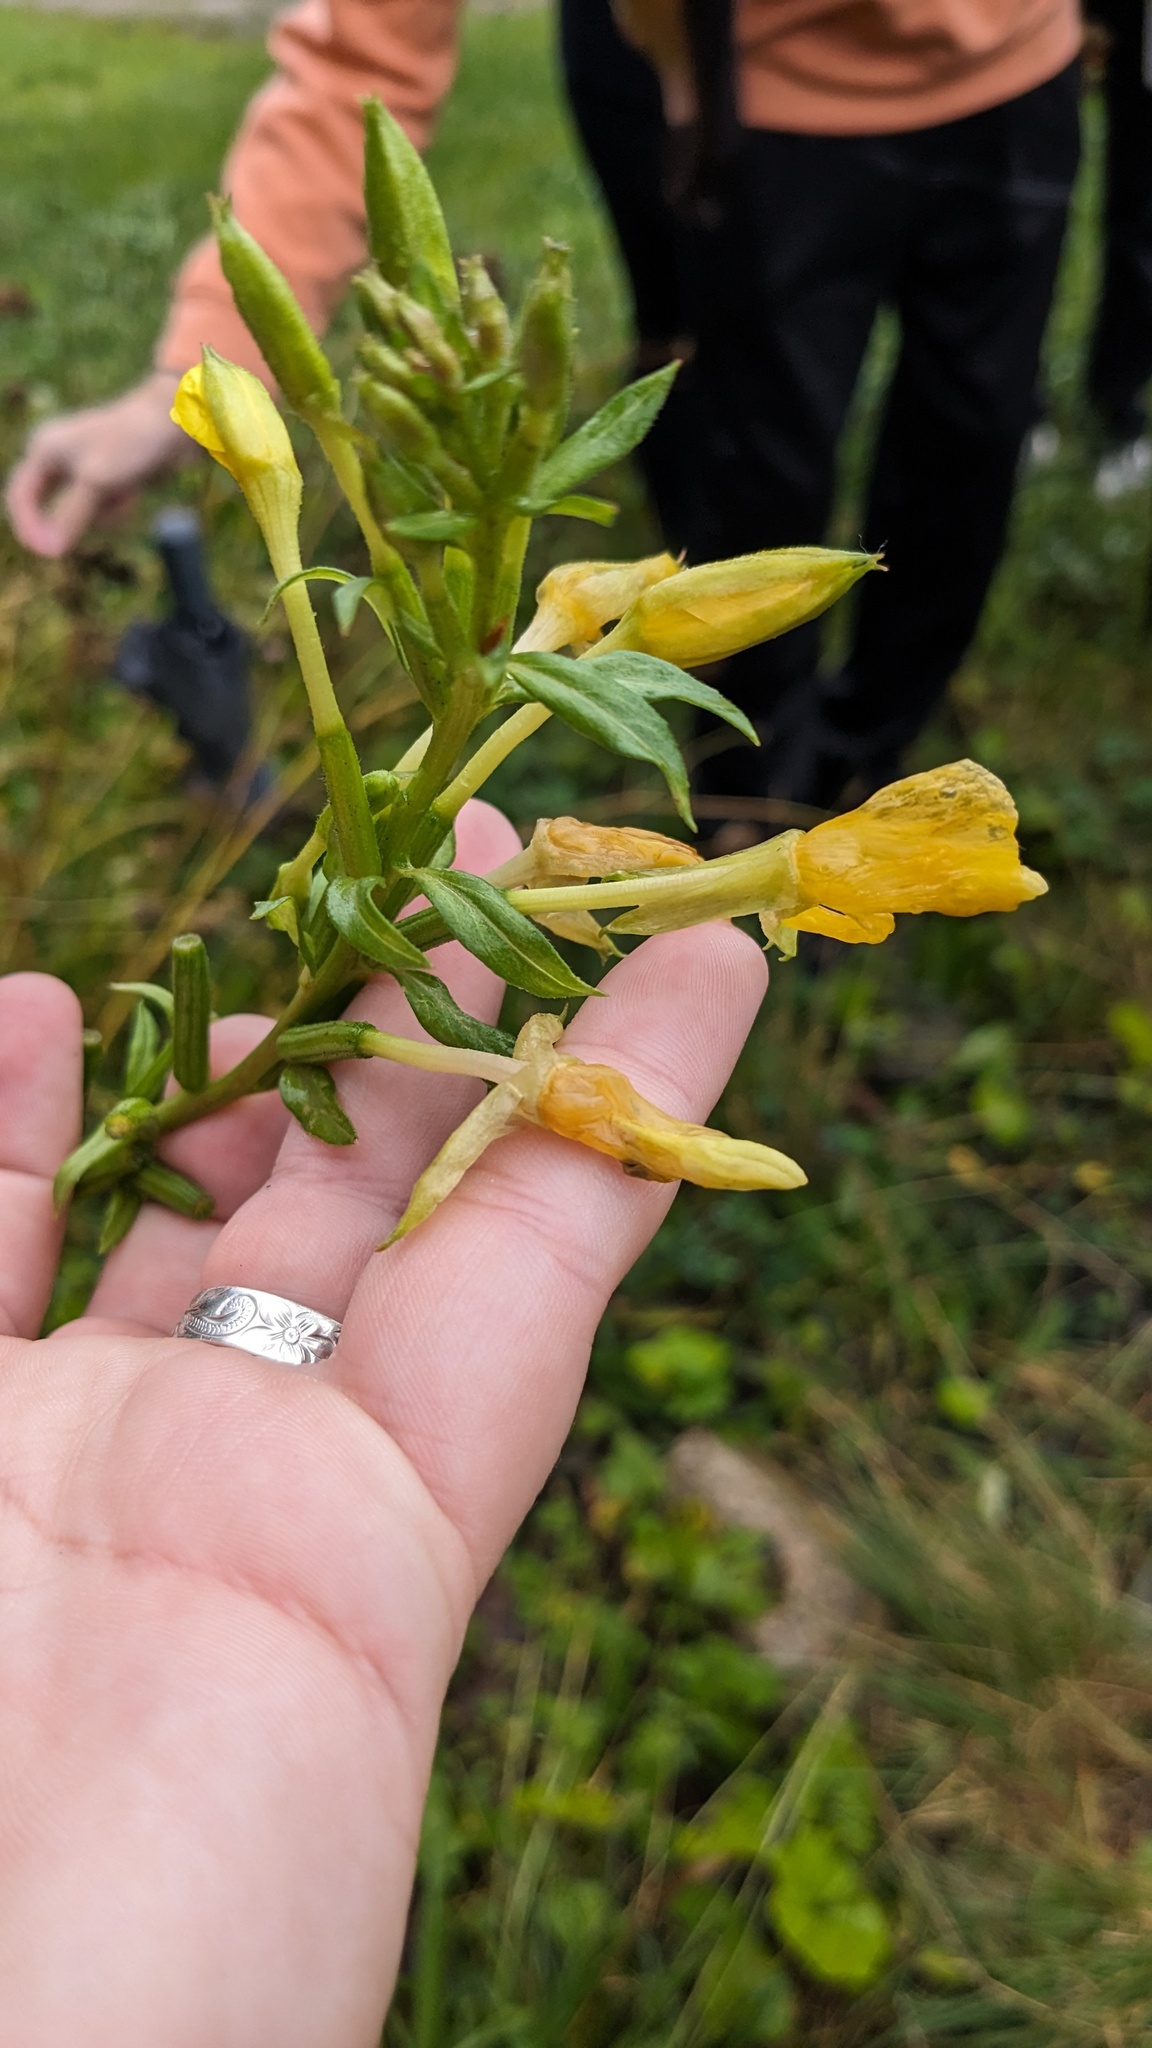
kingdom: Plantae
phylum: Tracheophyta
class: Magnoliopsida
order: Myrtales
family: Onagraceae
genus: Oenothera
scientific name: Oenothera biennis
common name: Common evening-primrose
